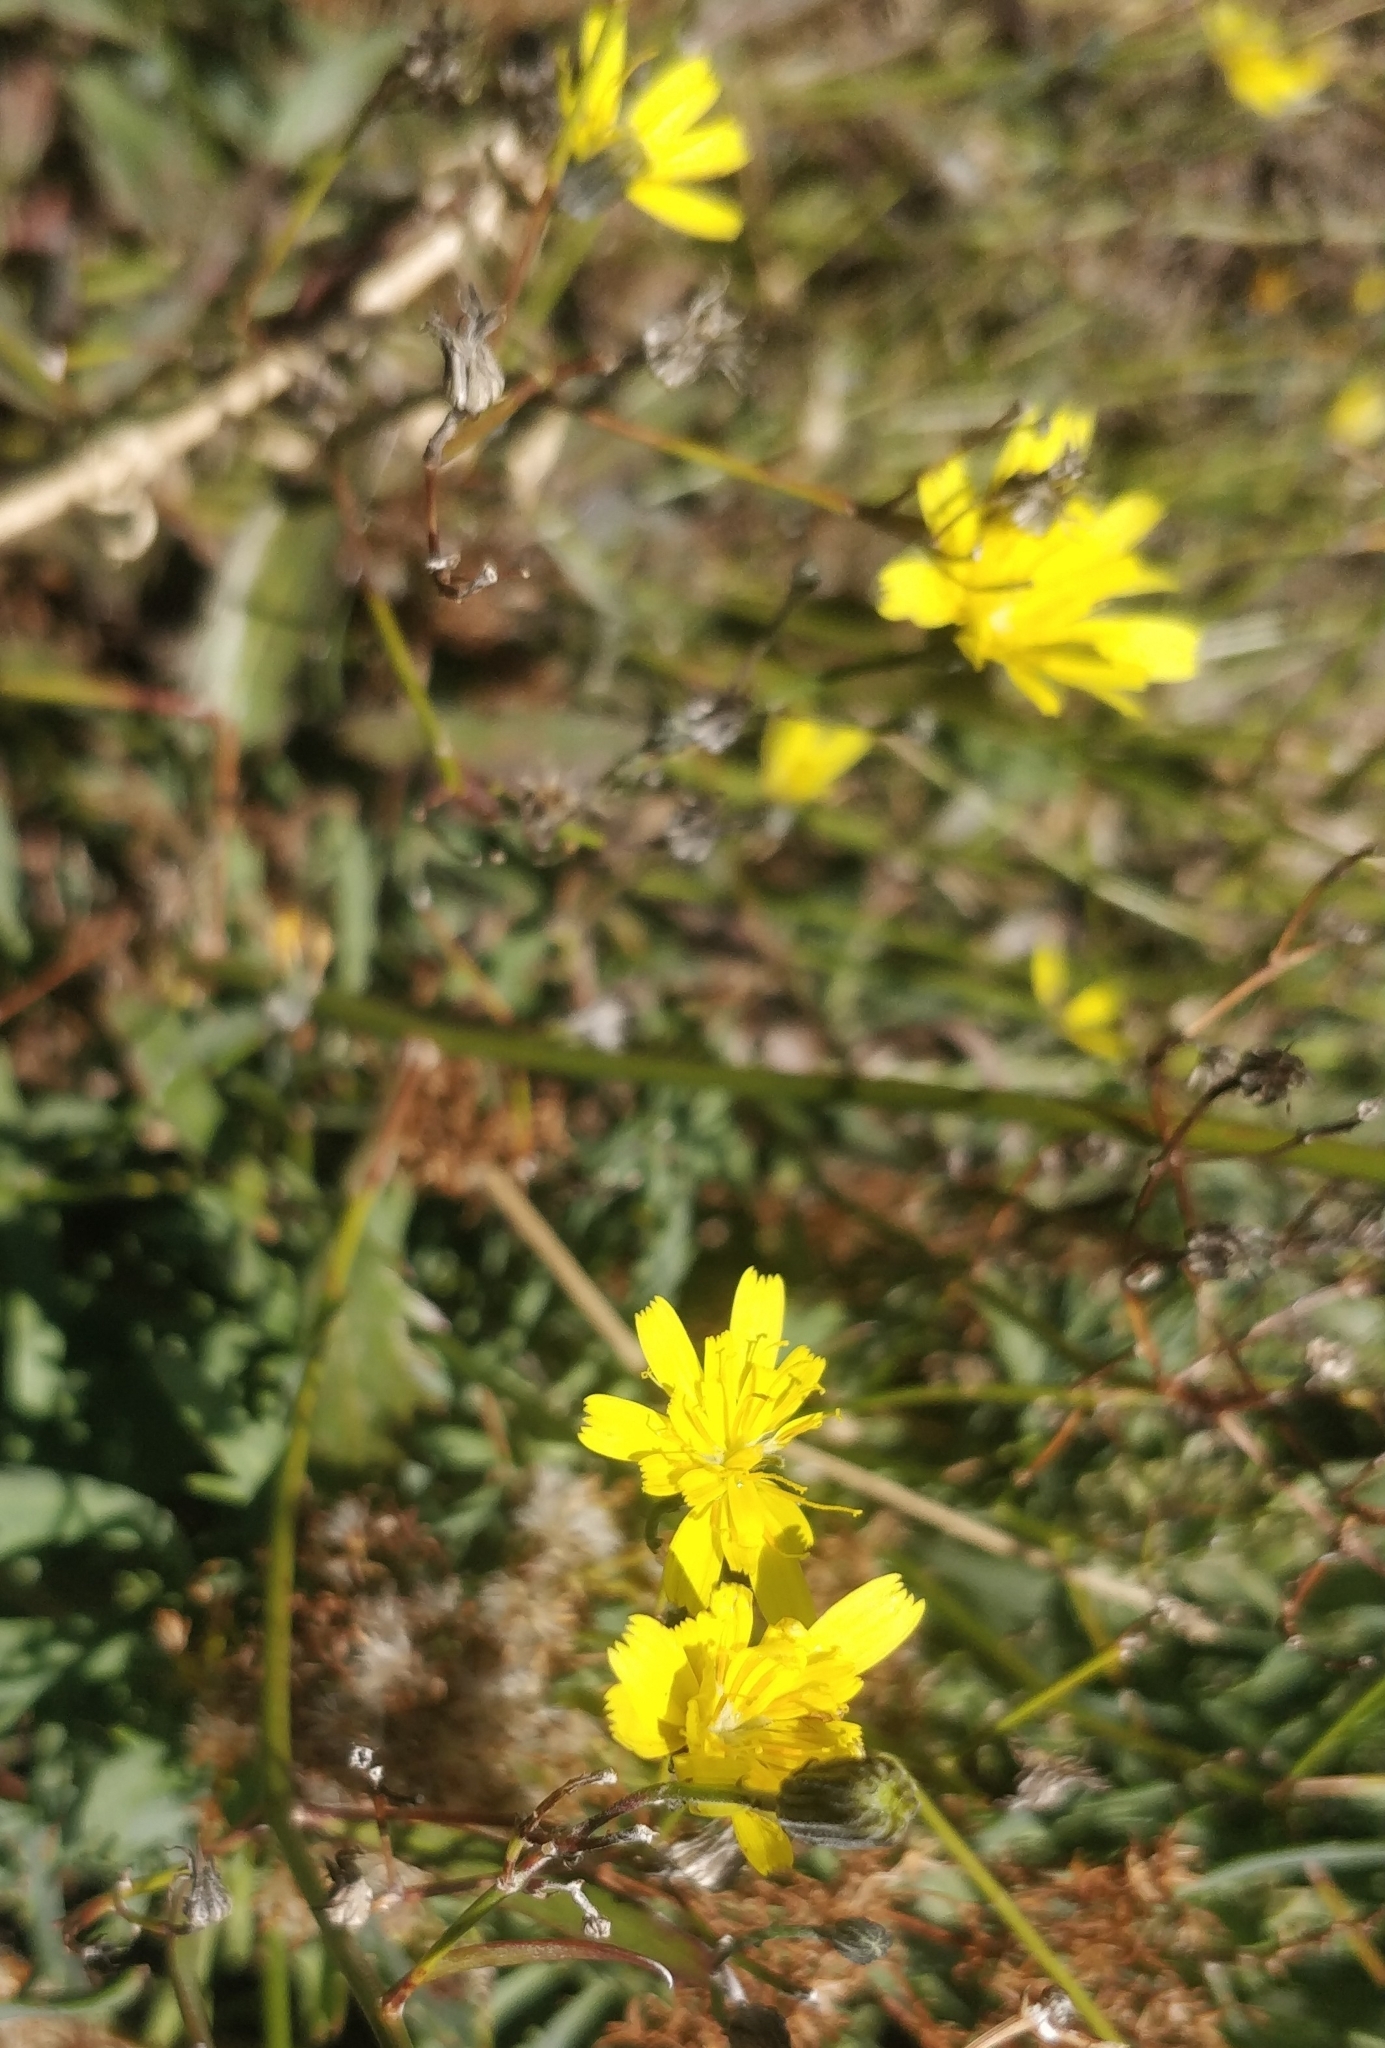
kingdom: Plantae
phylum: Tracheophyta
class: Magnoliopsida
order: Asterales
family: Asteraceae
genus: Tolpis
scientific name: Tolpis calderae
